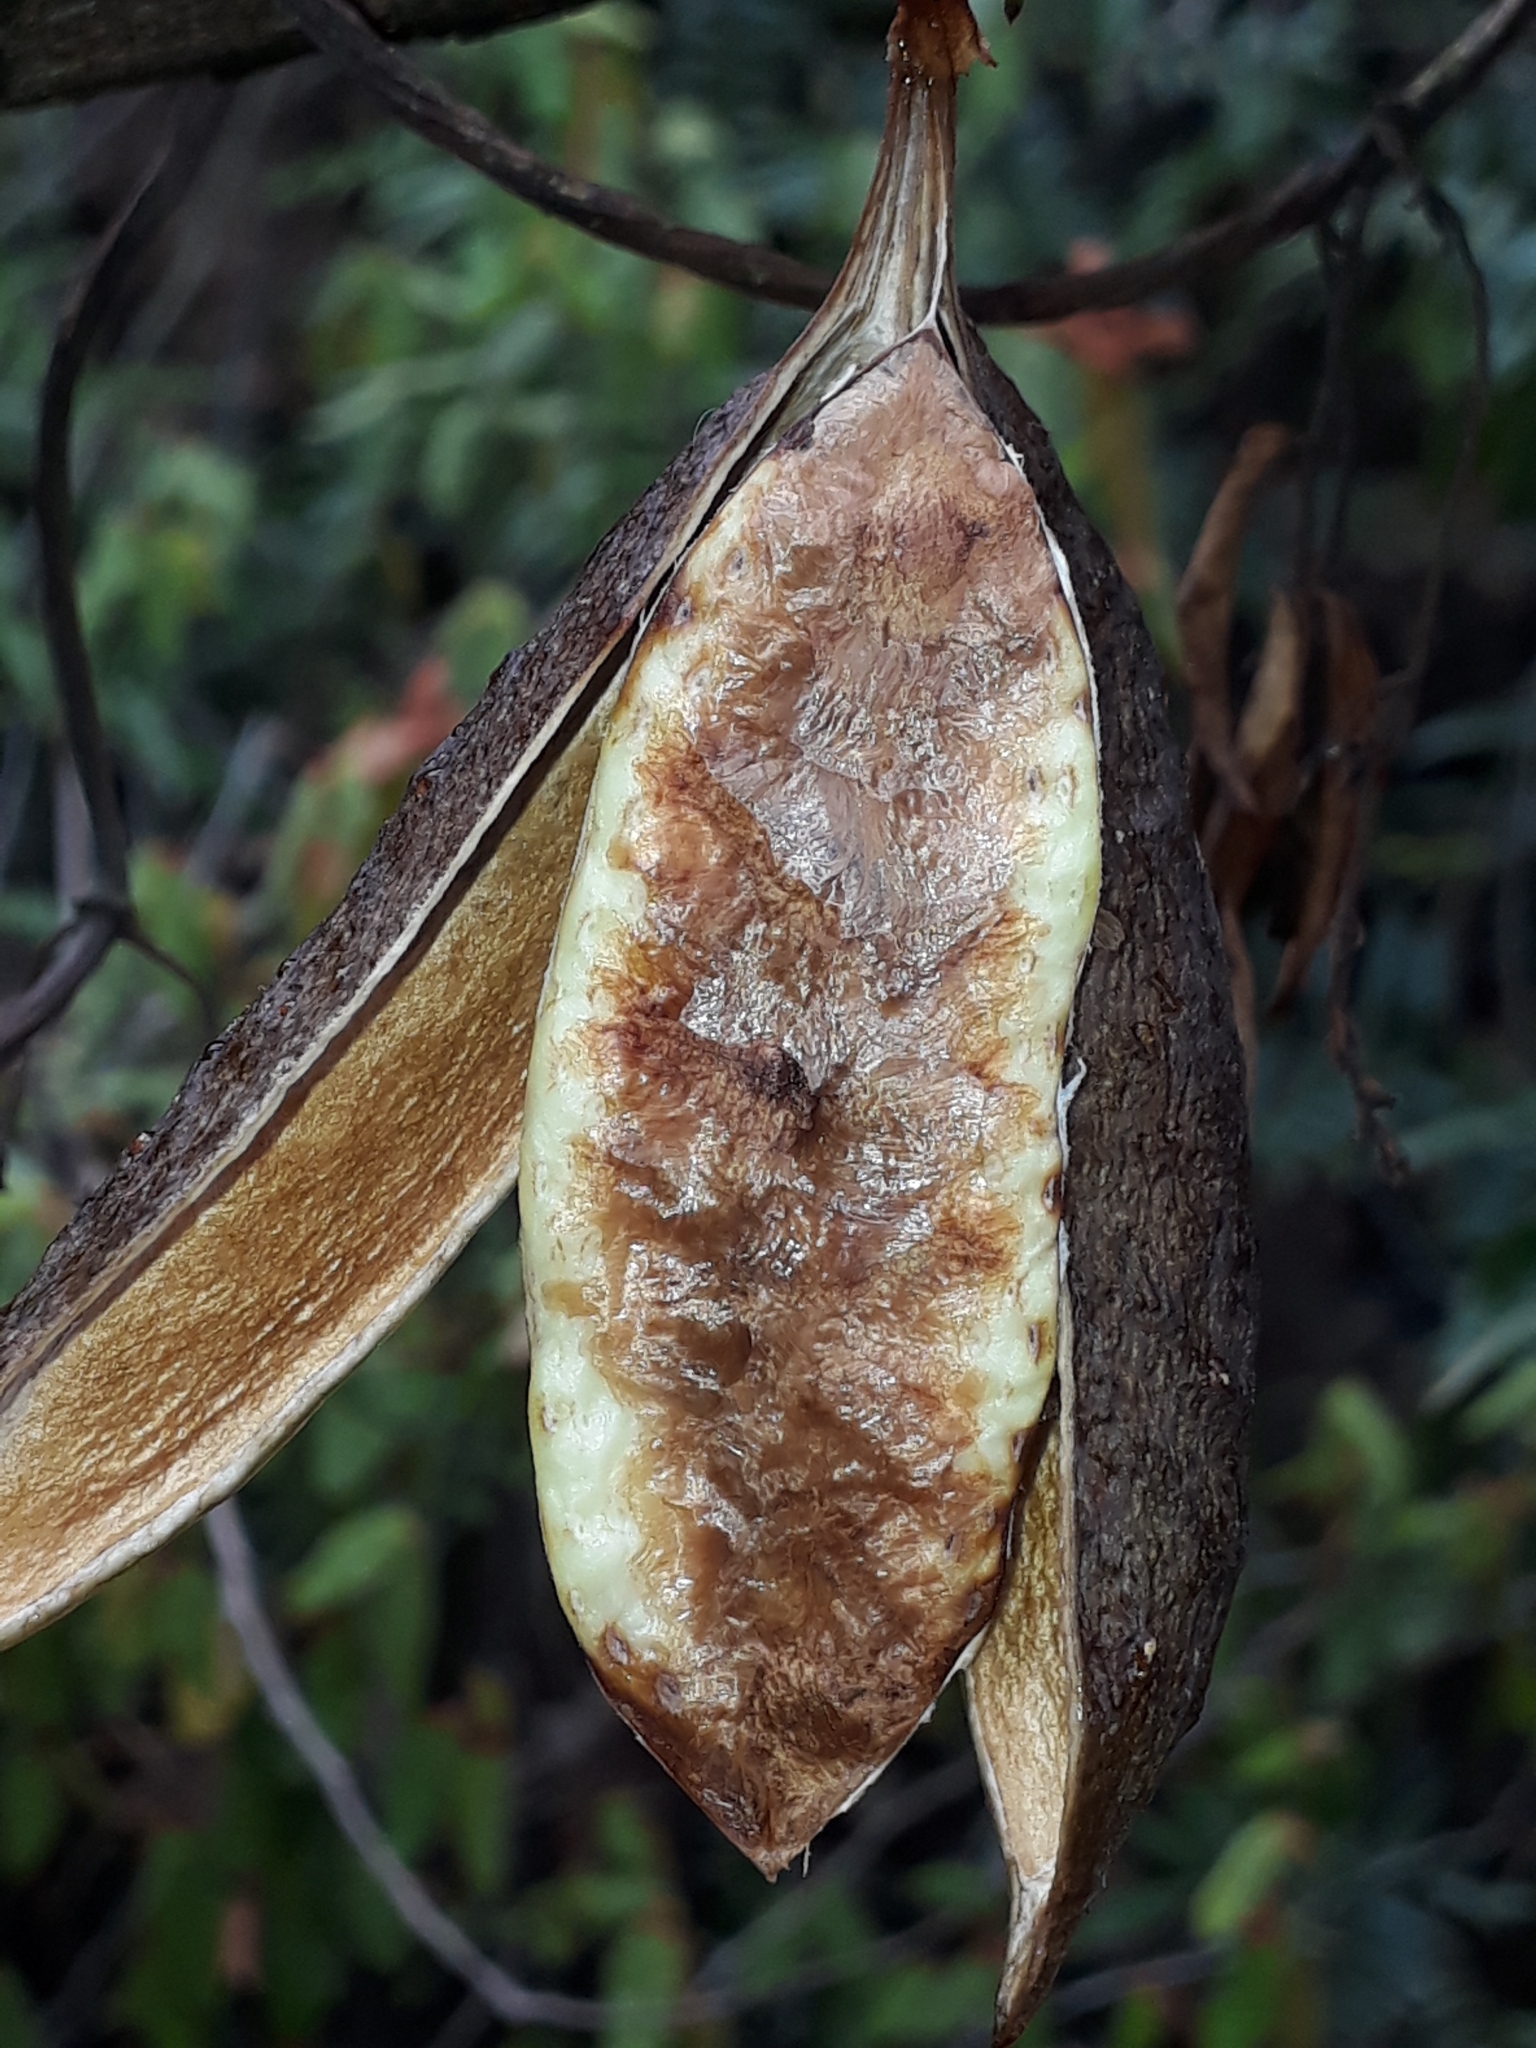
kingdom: Plantae
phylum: Tracheophyta
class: Magnoliopsida
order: Lamiales
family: Bignoniaceae
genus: Pandorea
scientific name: Pandorea pandorana
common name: Wonga-wonga-vine
